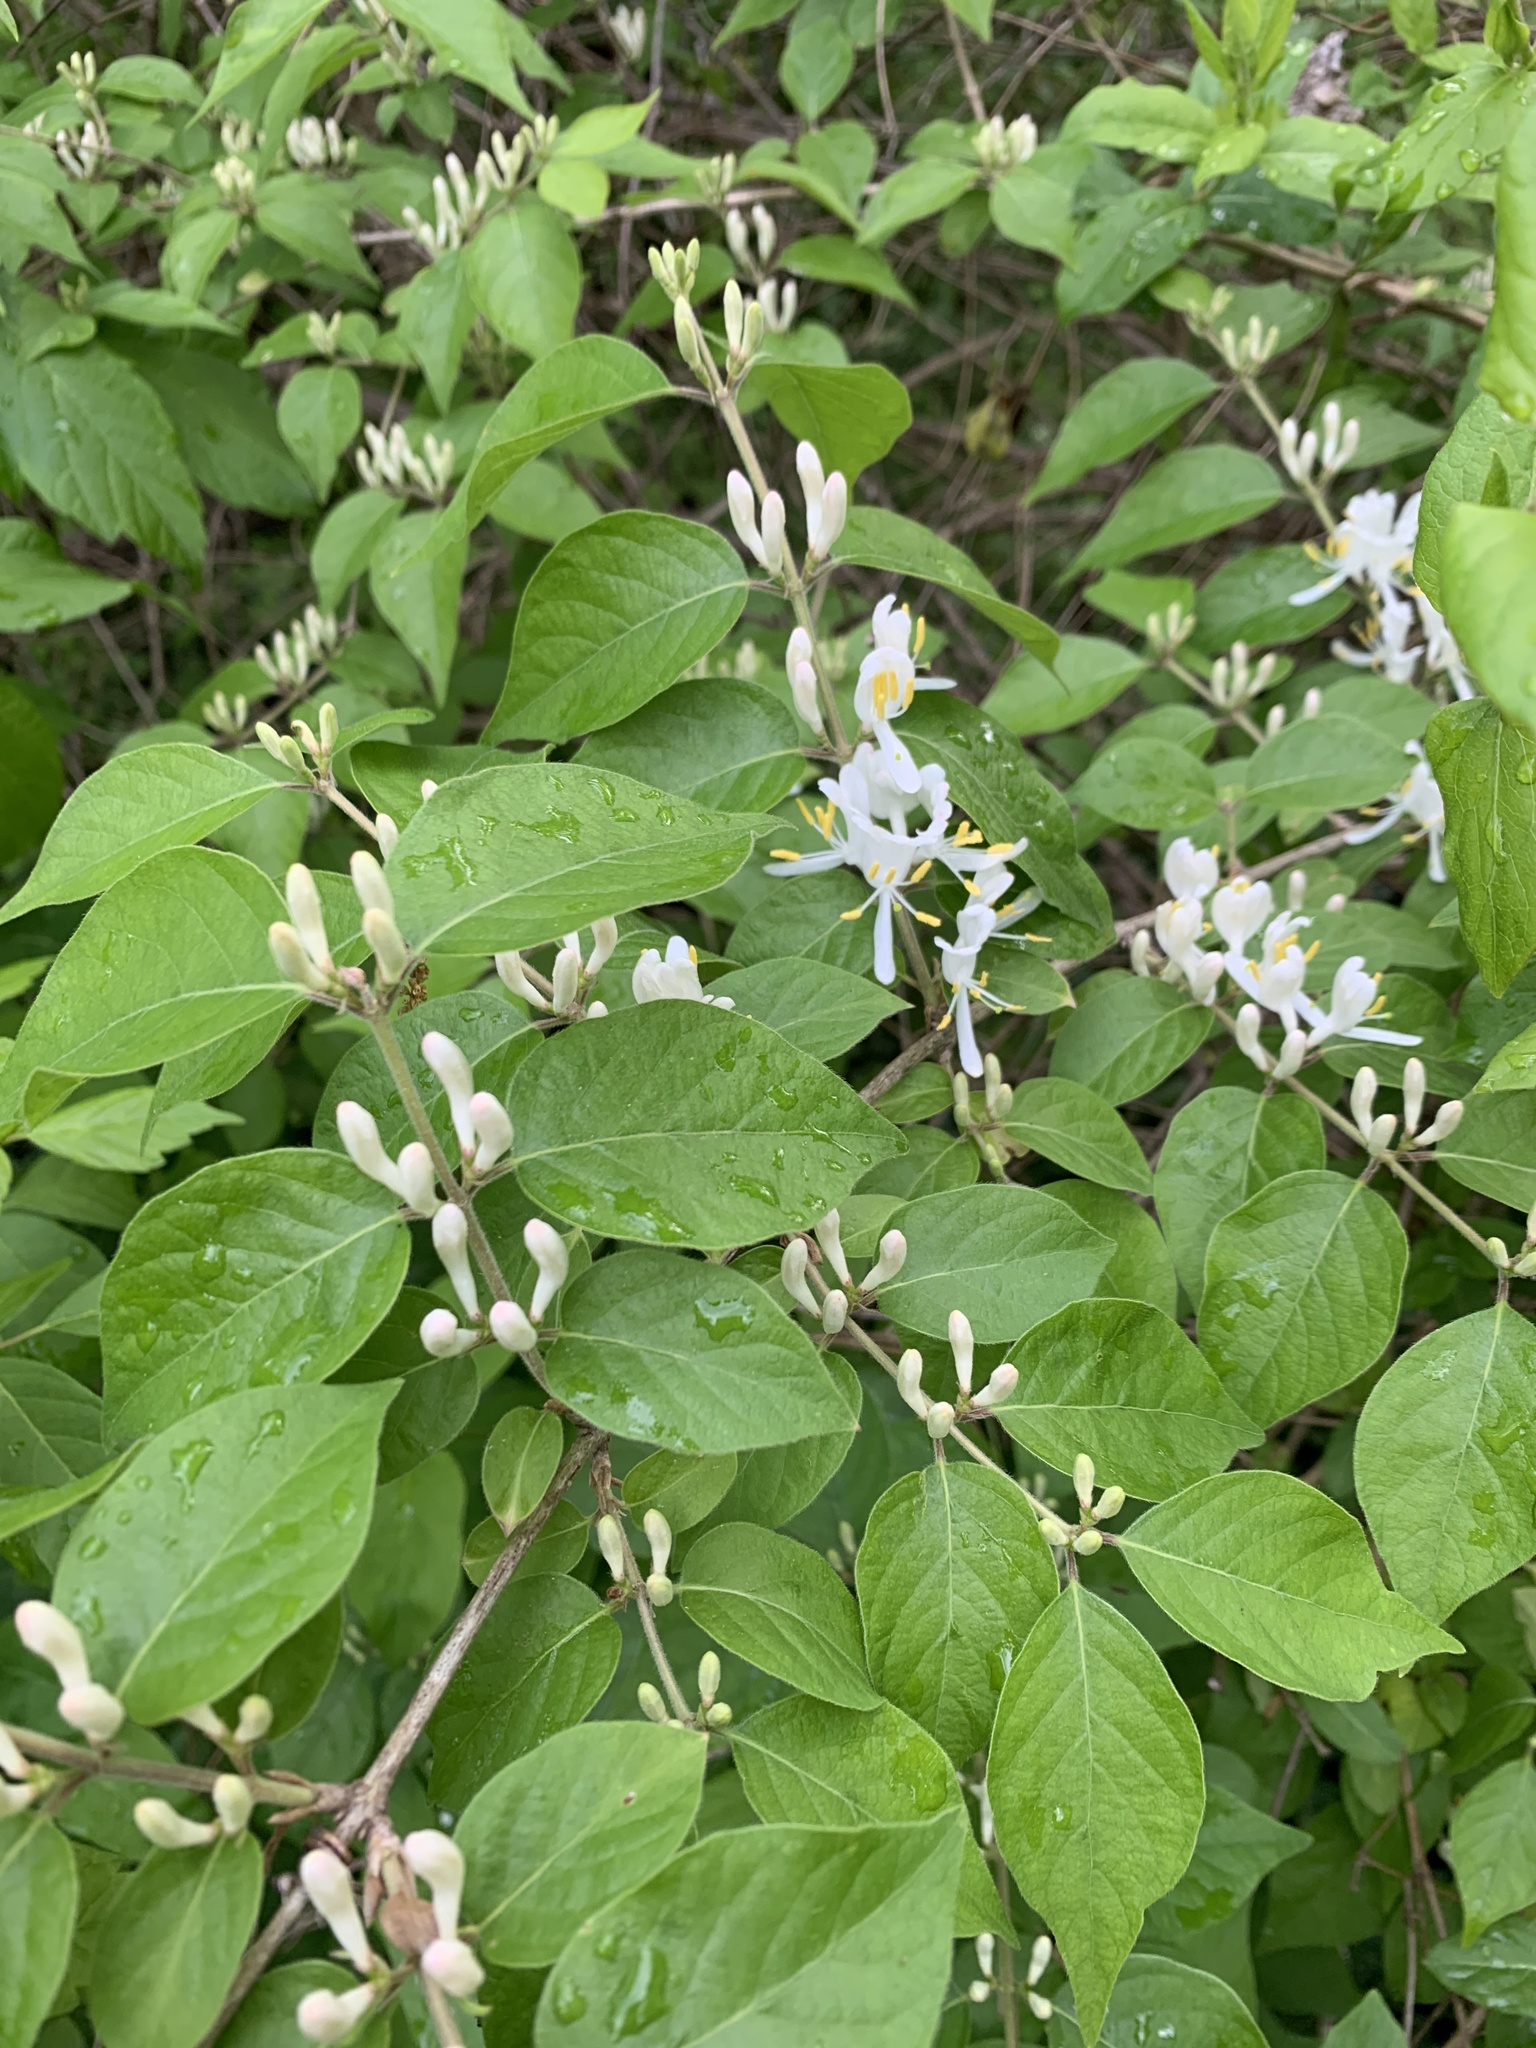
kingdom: Plantae
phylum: Tracheophyta
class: Magnoliopsida
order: Dipsacales
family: Caprifoliaceae
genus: Lonicera
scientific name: Lonicera maackii
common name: Amur honeysuckle
